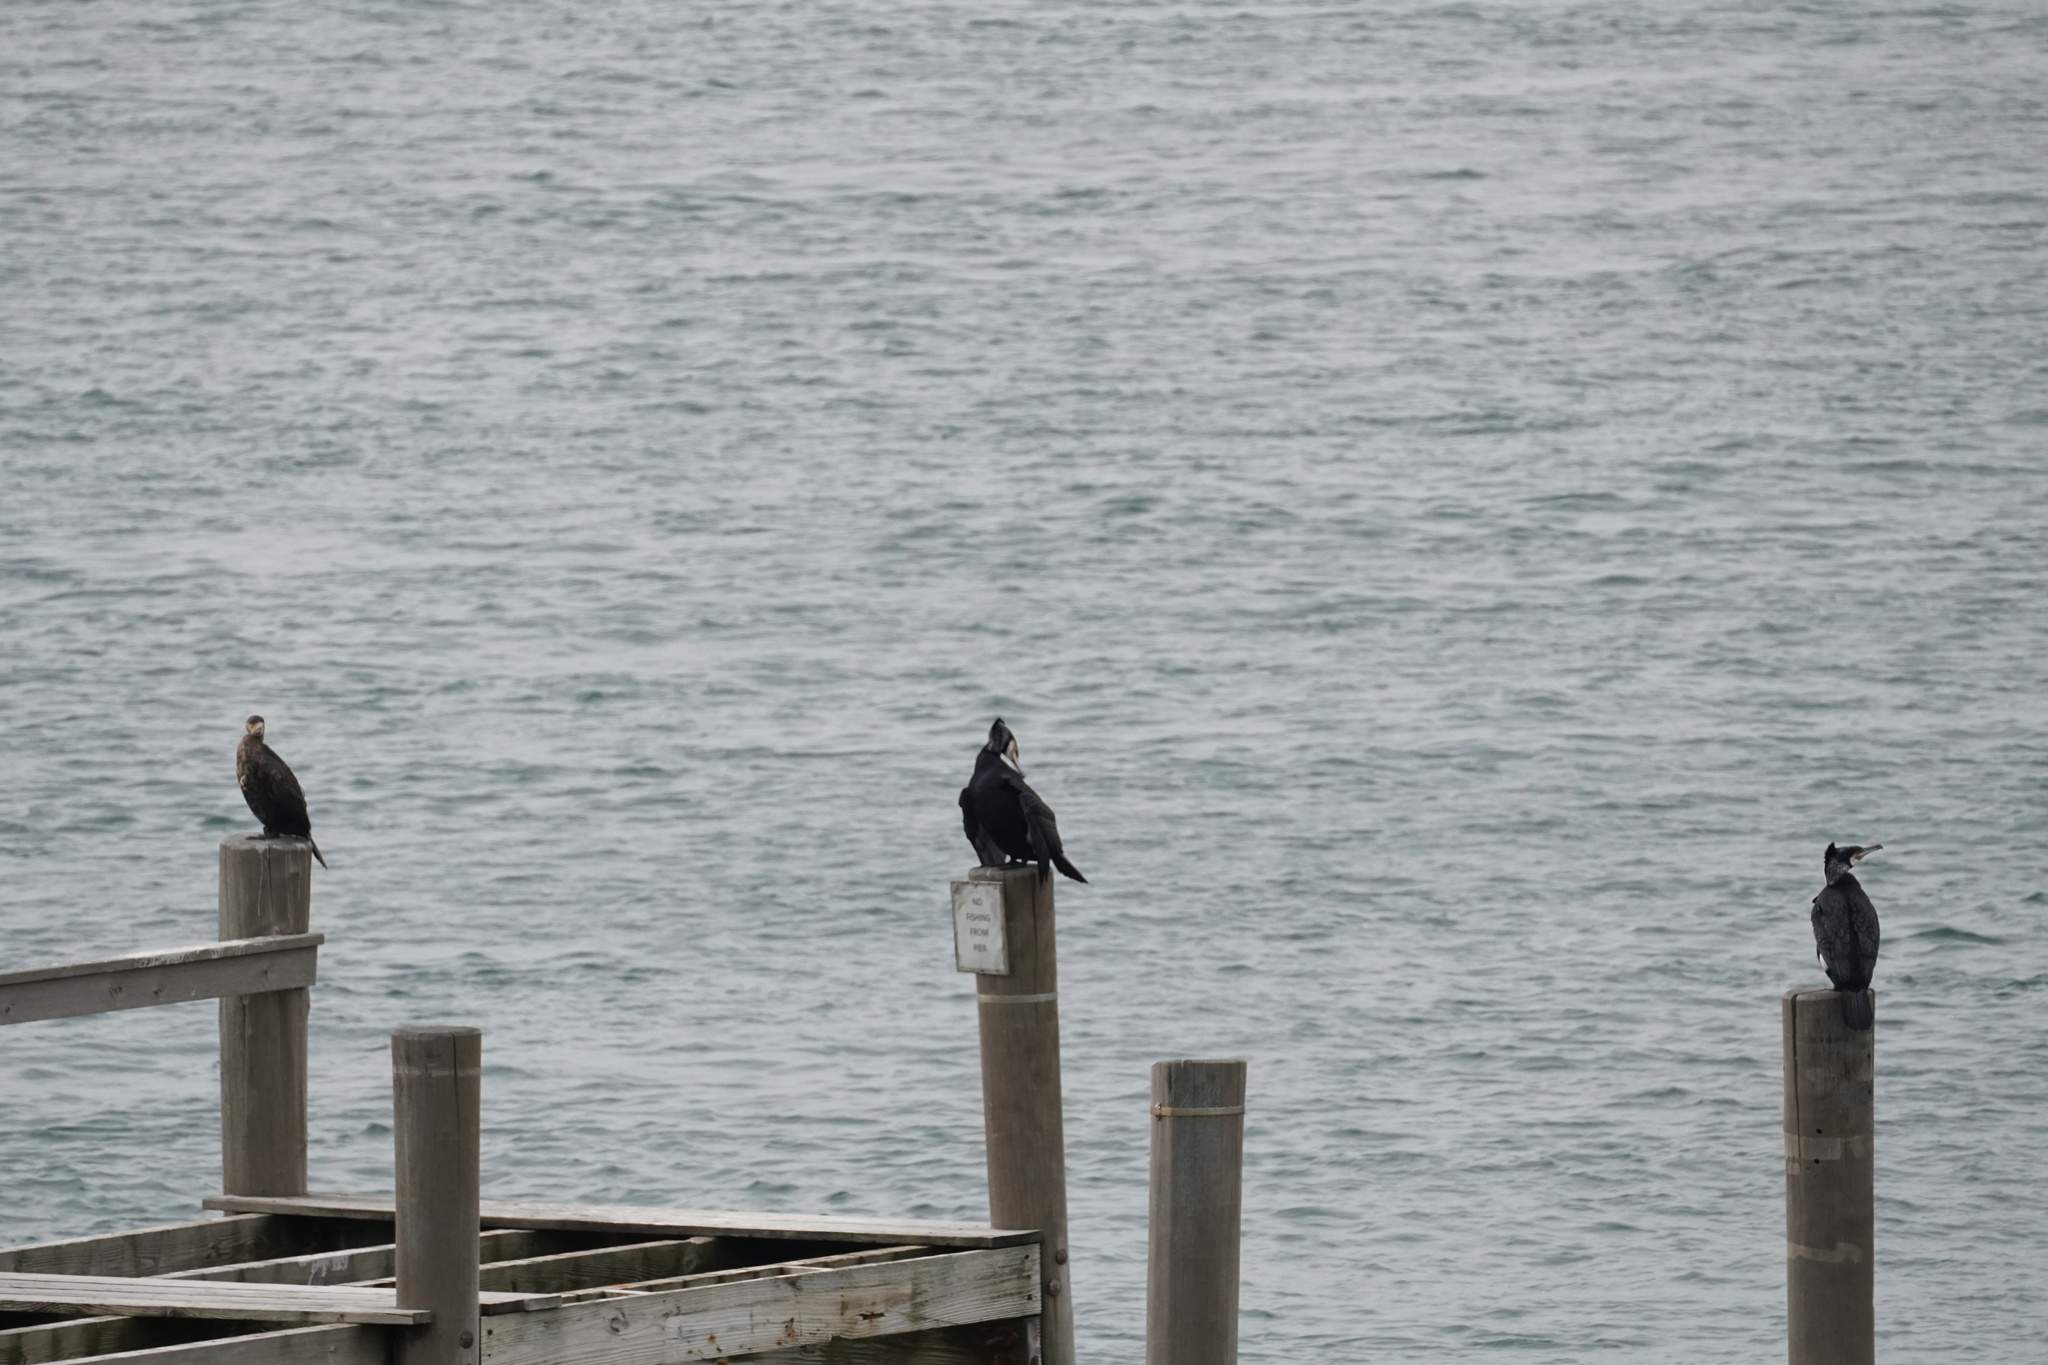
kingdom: Animalia
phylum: Chordata
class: Aves
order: Suliformes
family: Phalacrocoracidae
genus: Phalacrocorax
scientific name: Phalacrocorax carbo
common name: Great cormorant
